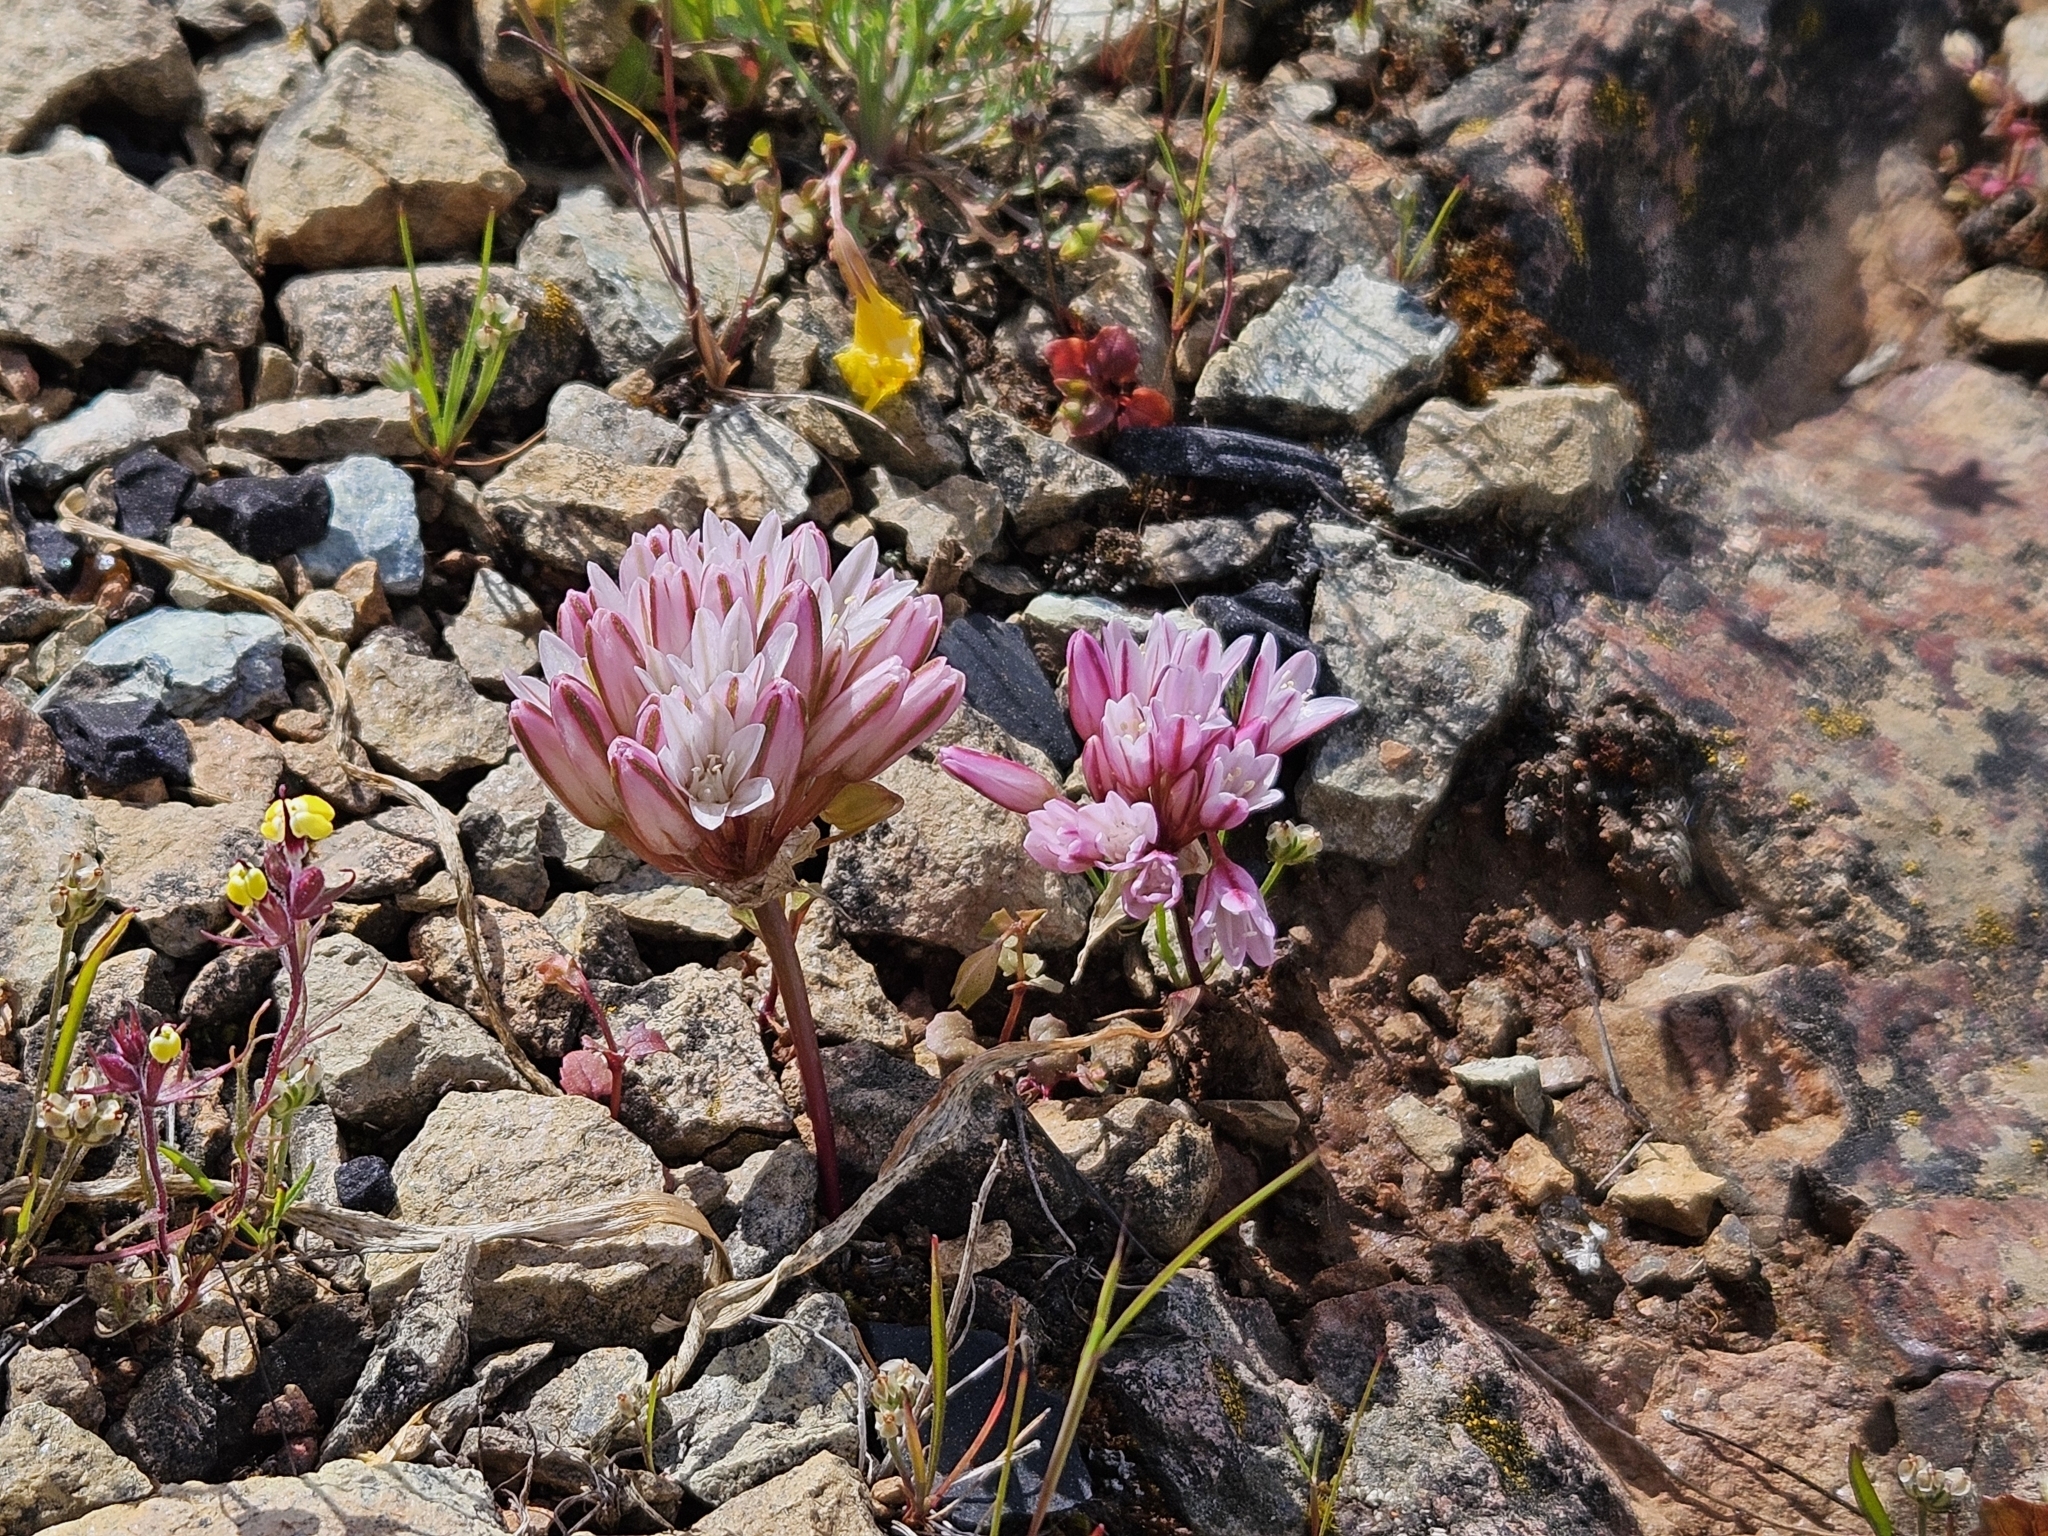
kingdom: Plantae
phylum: Tracheophyta
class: Liliopsida
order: Asparagales
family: Amaryllidaceae
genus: Allium
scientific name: Allium cratericola
